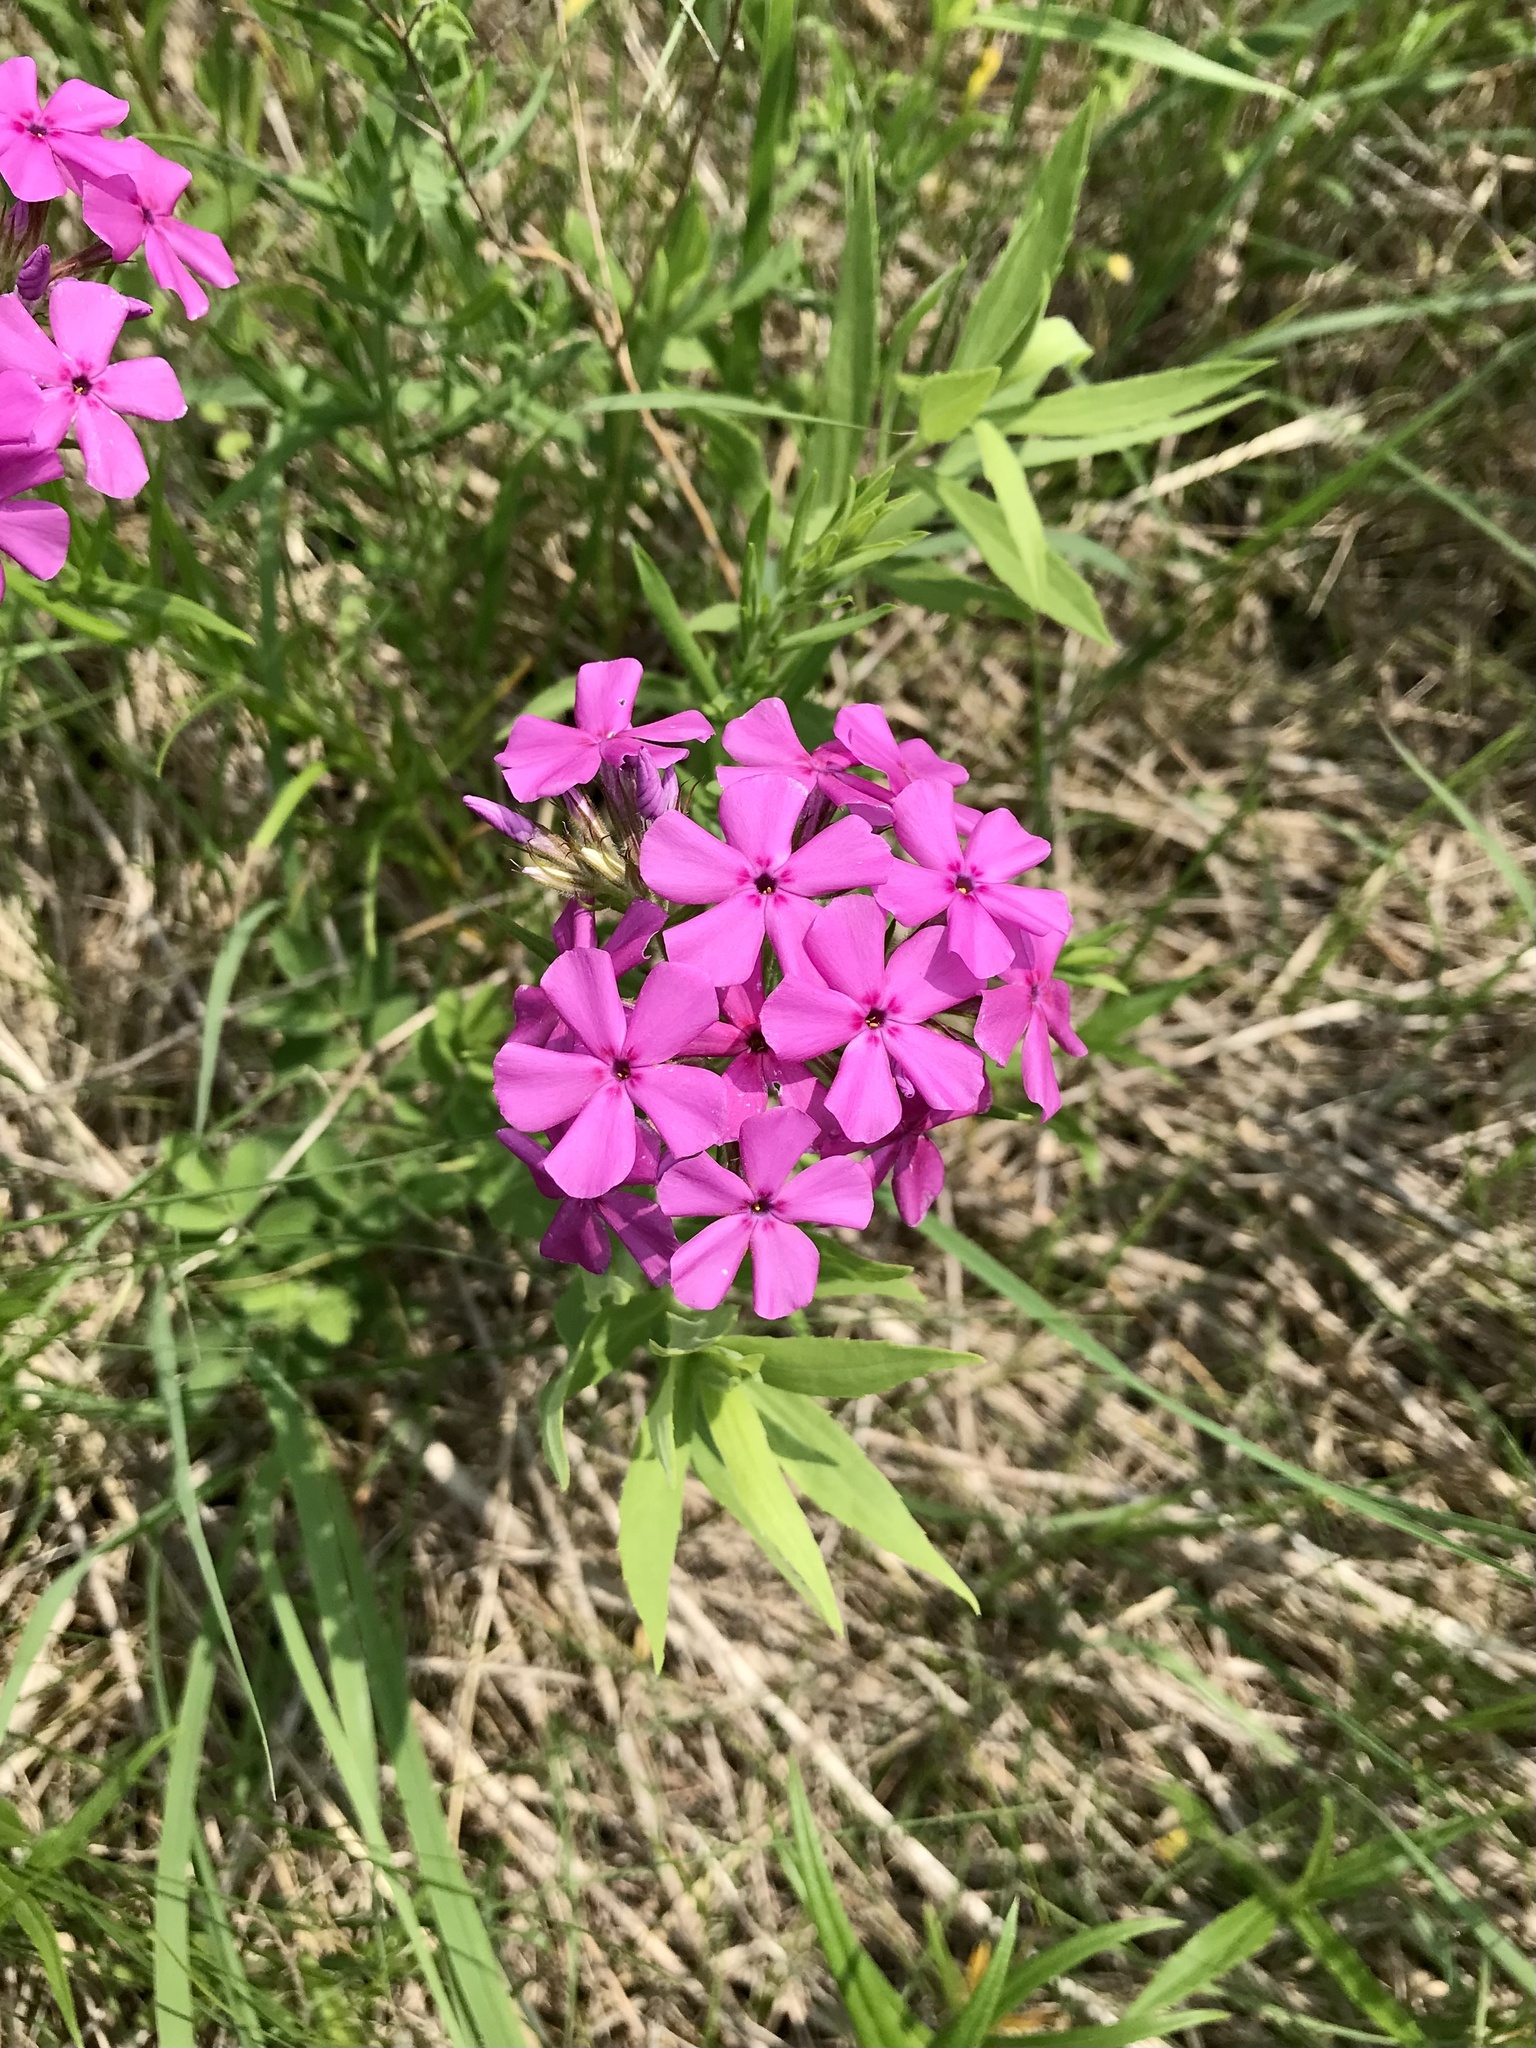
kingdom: Plantae
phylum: Tracheophyta
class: Magnoliopsida
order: Ericales
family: Polemoniaceae
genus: Phlox
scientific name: Phlox pilosa
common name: Prairie phlox
